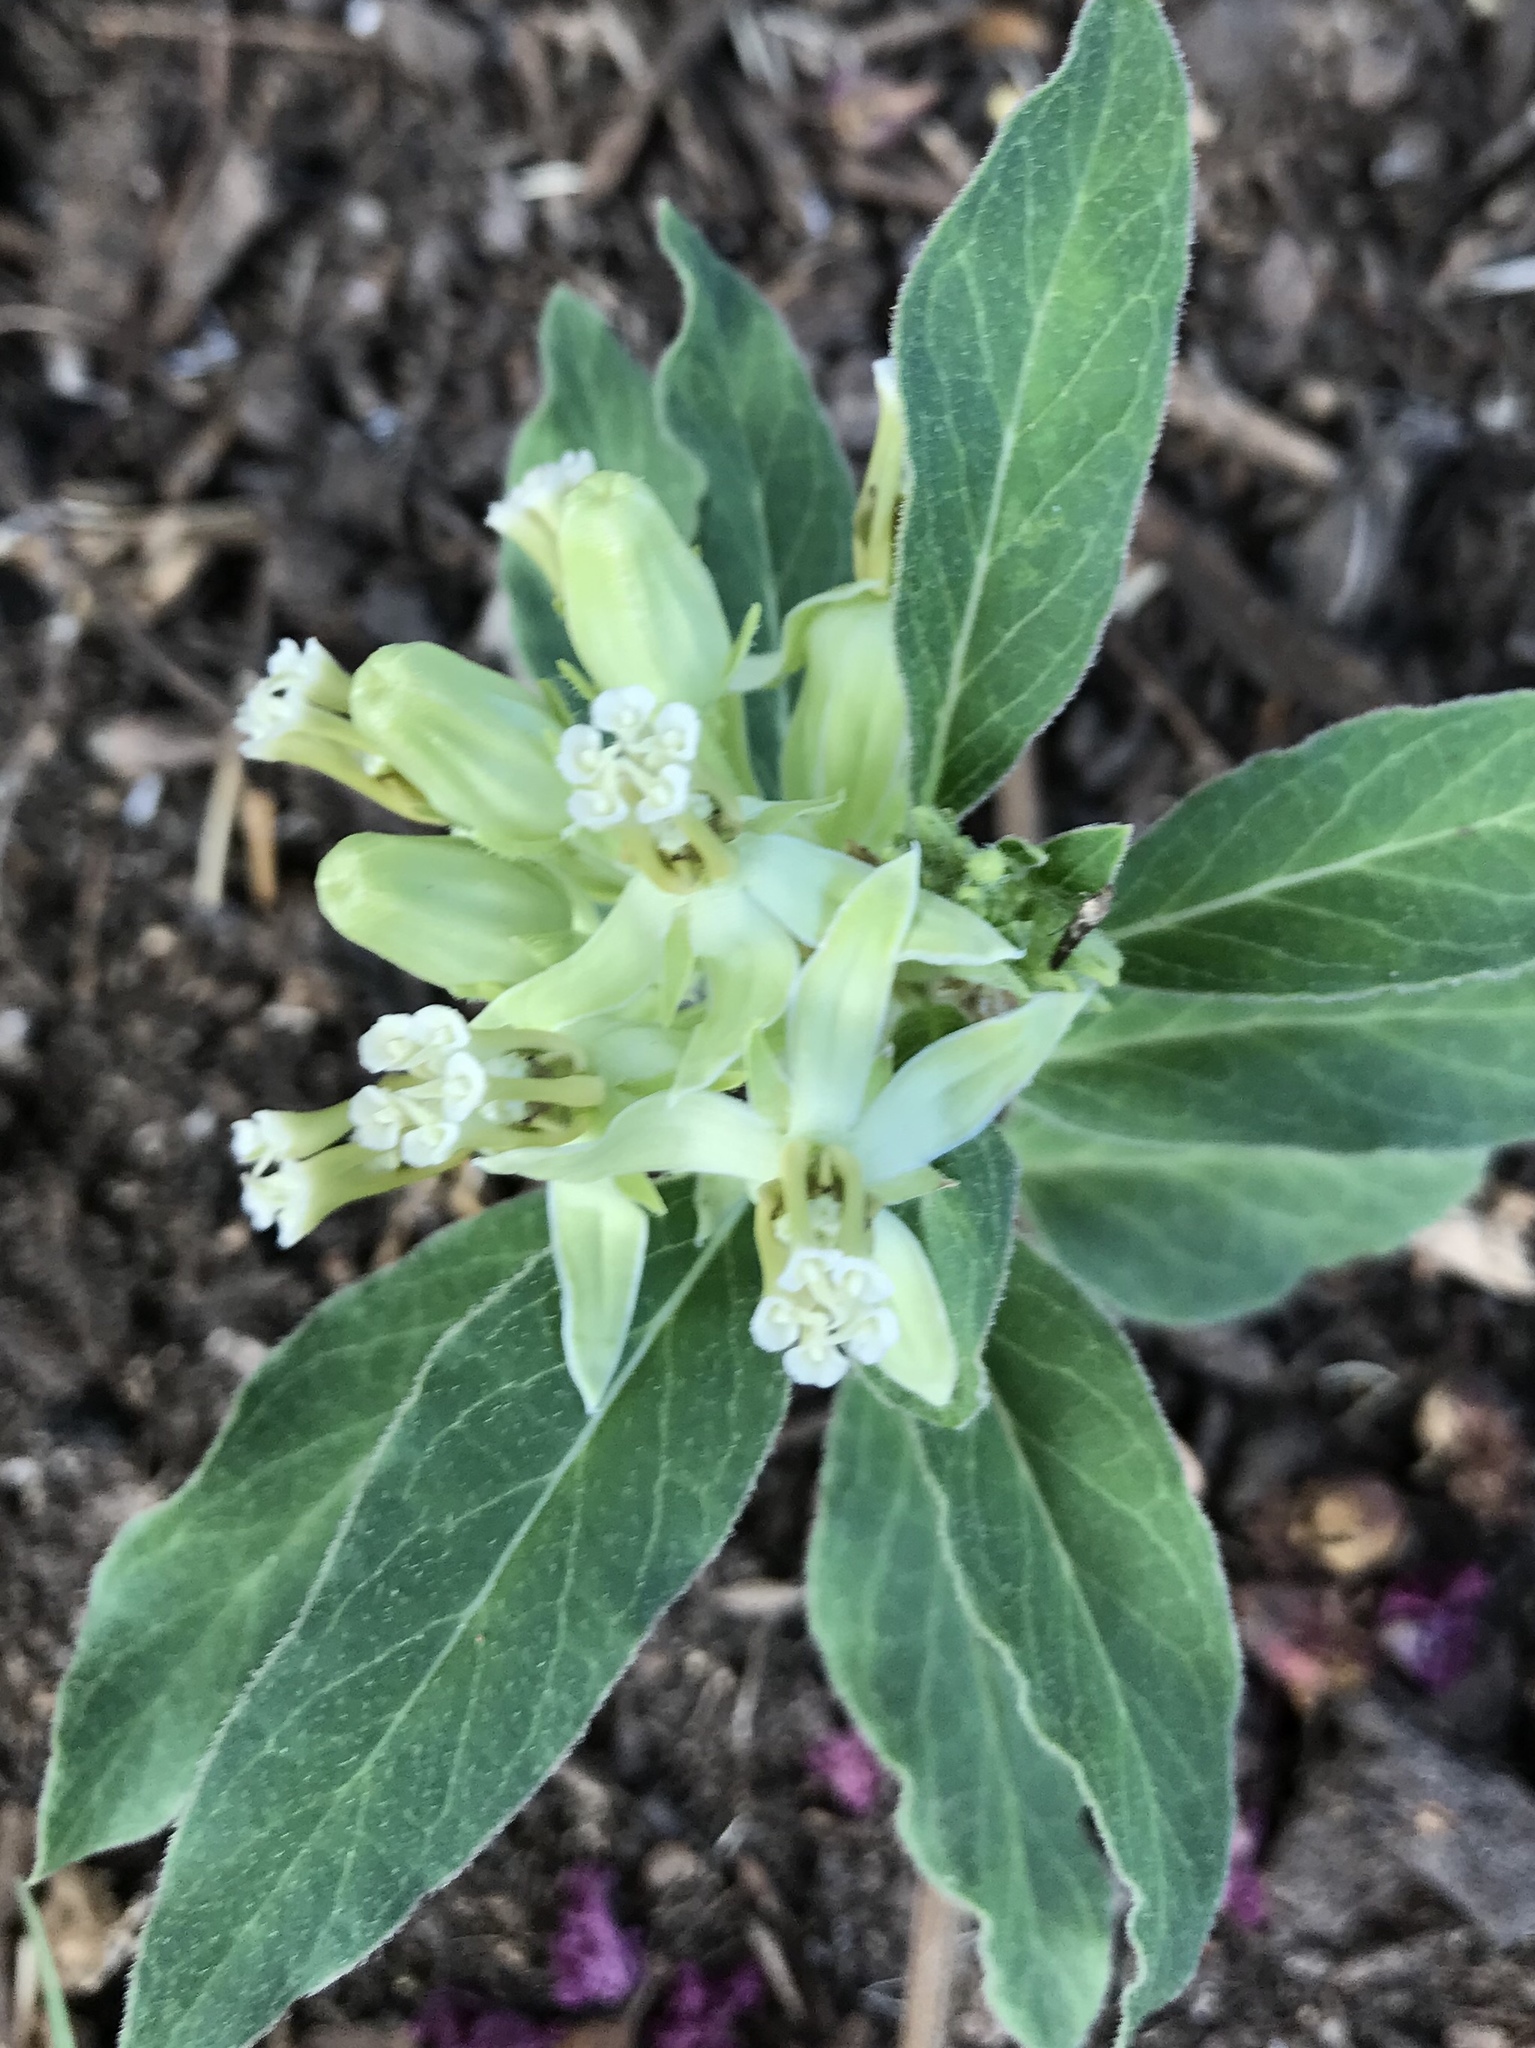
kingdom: Plantae
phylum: Tracheophyta
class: Magnoliopsida
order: Gentianales
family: Apocynaceae
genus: Asclepias
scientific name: Asclepias oenotheroides
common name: Zizotes milkweed
